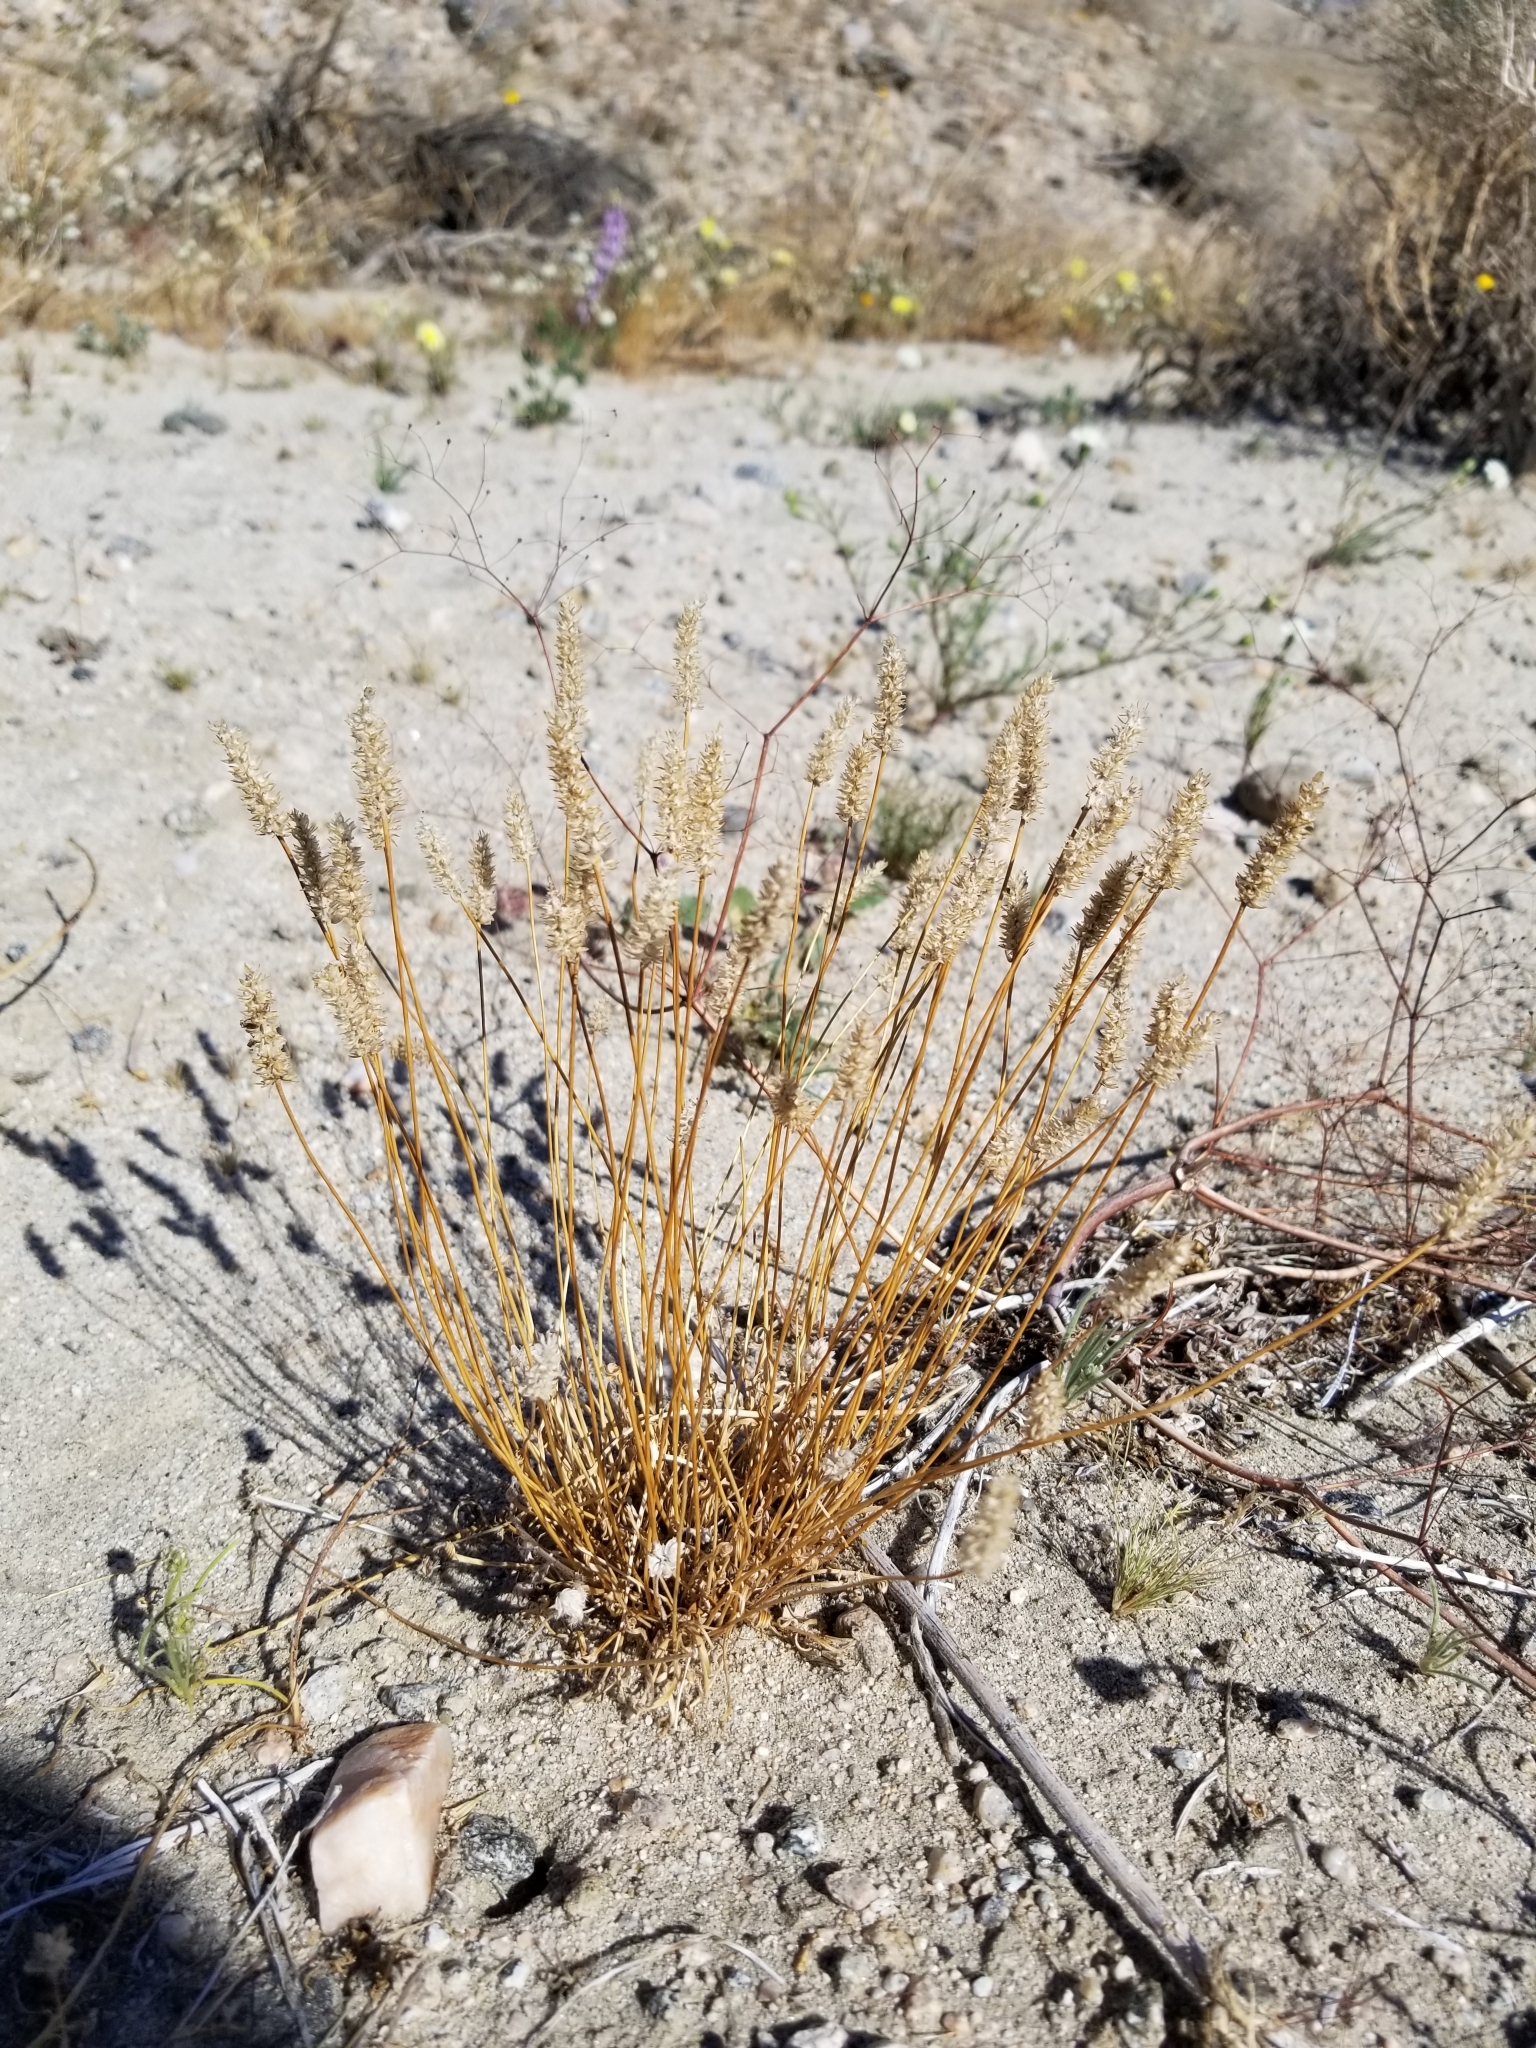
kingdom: Plantae
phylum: Tracheophyta
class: Magnoliopsida
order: Lamiales
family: Plantaginaceae
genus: Plantago
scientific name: Plantago ovata
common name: Blond plantain
